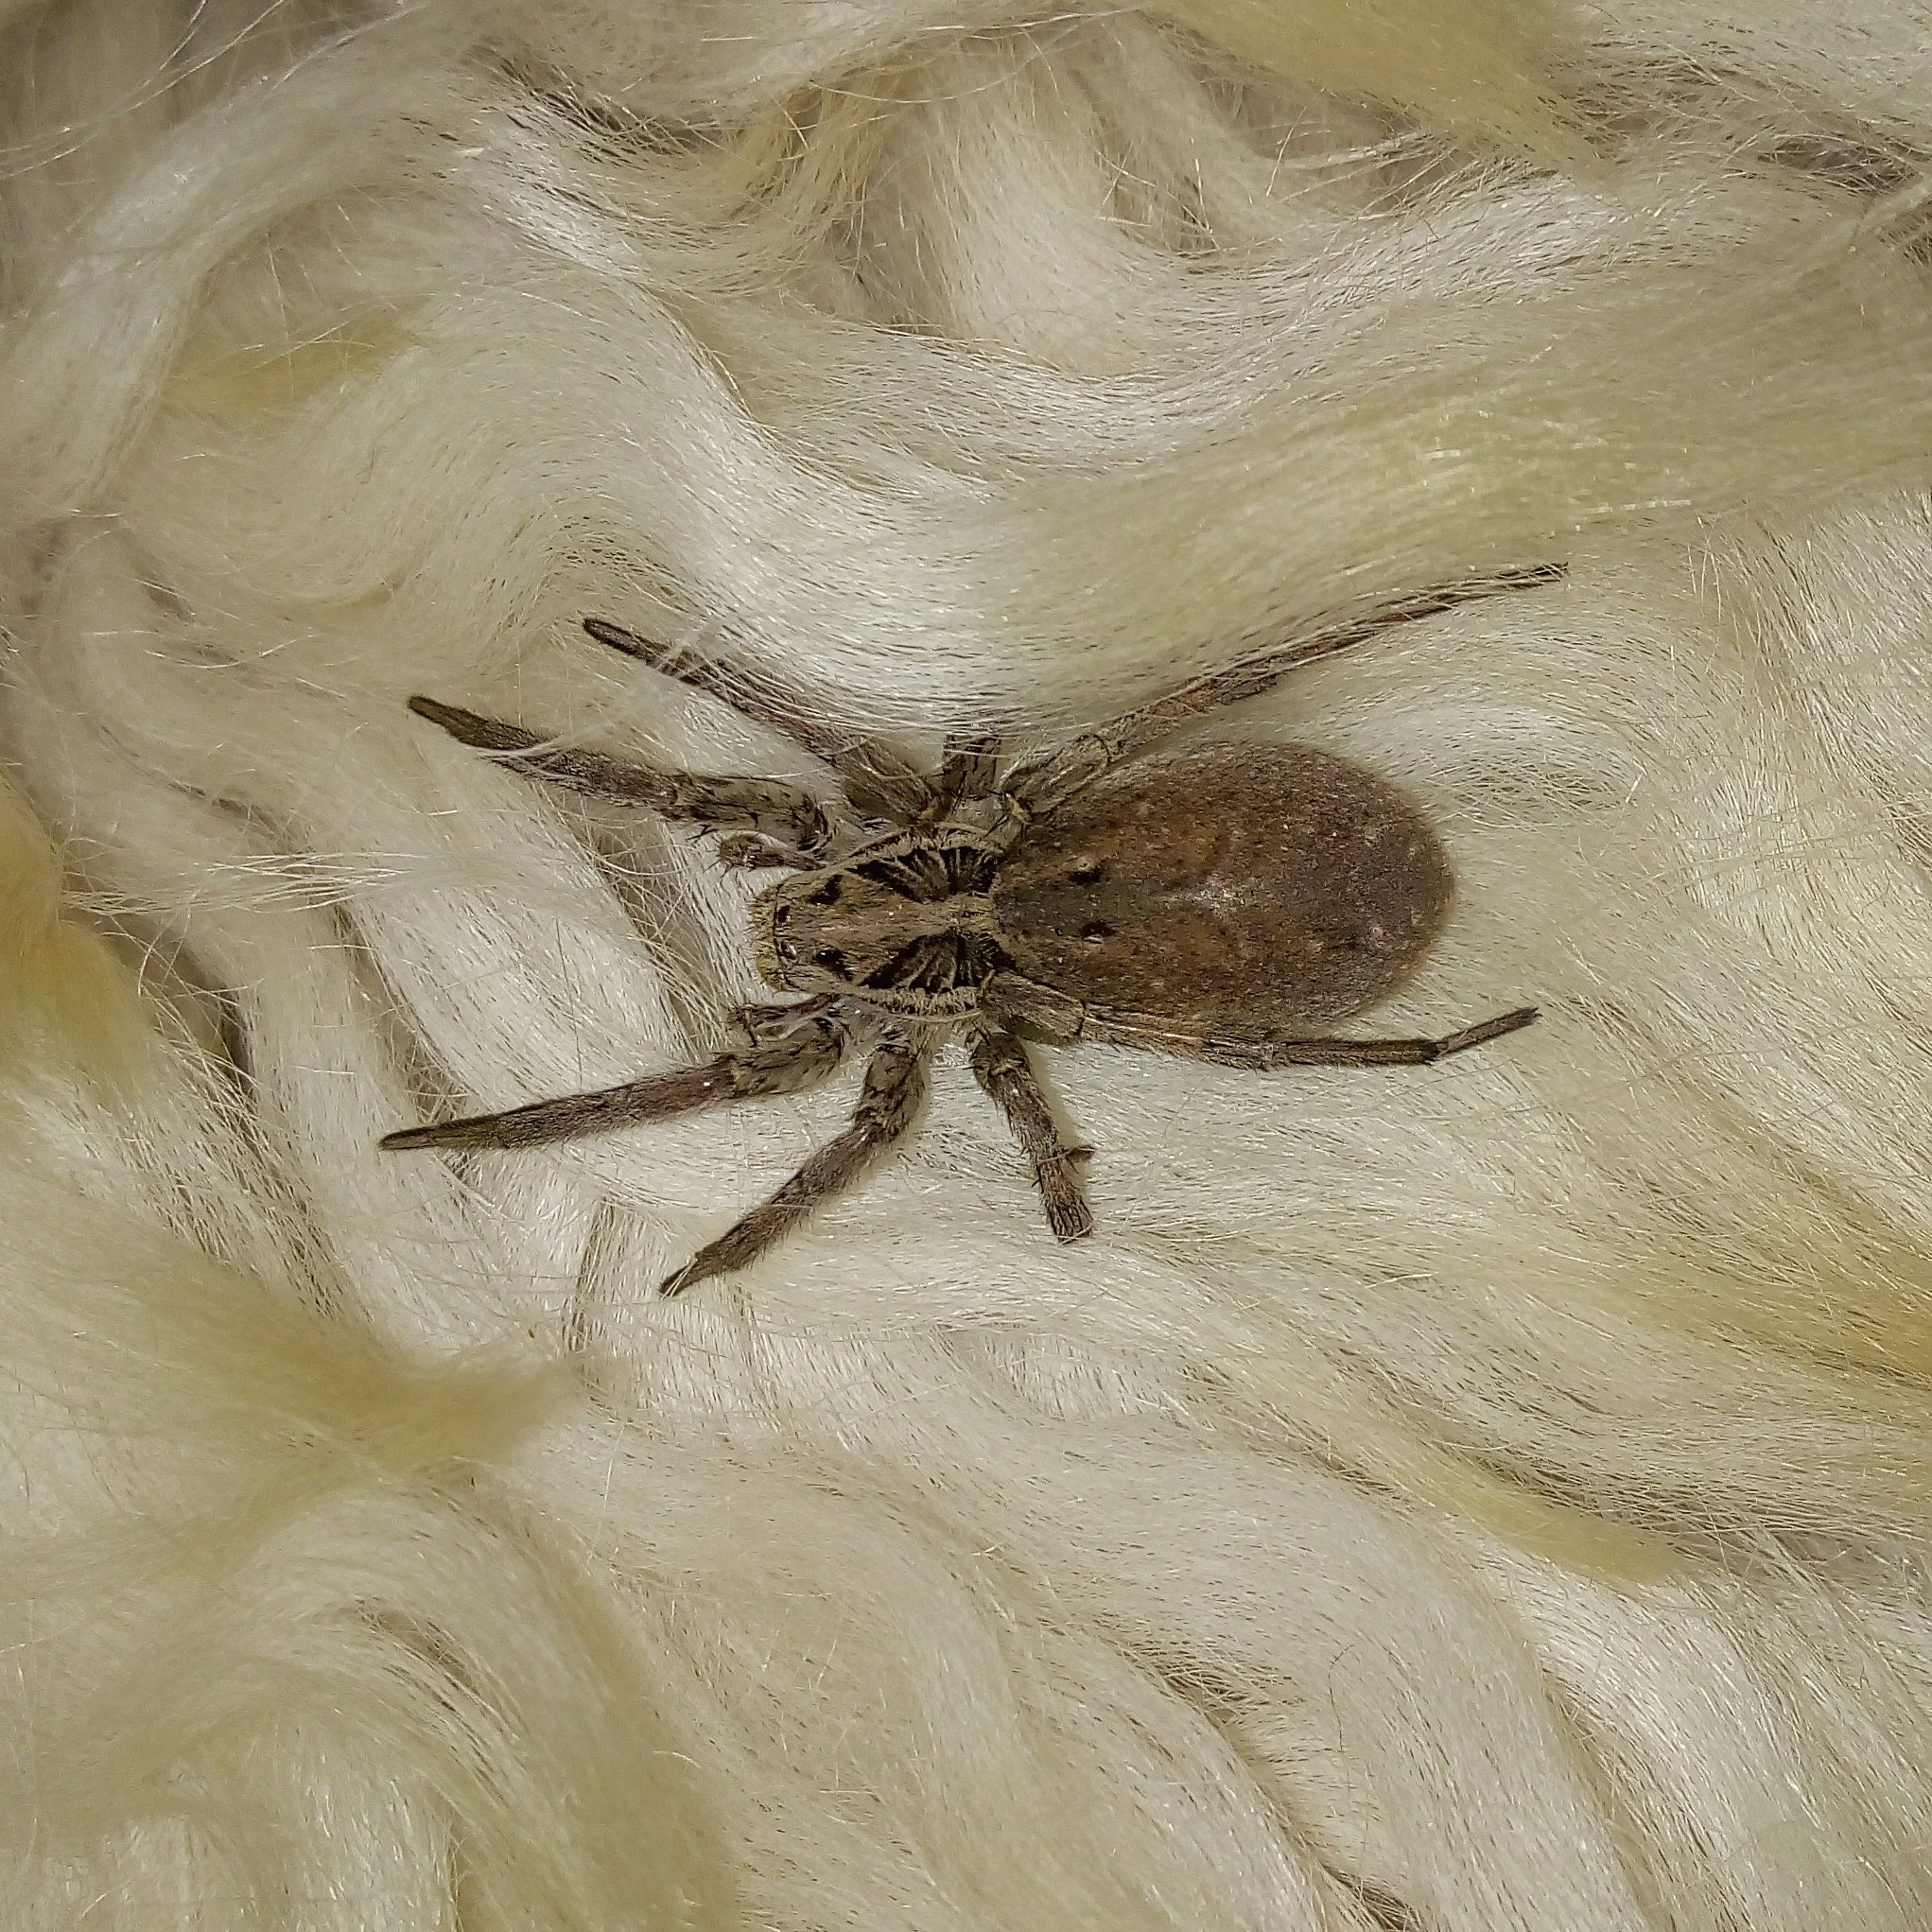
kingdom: Animalia
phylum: Arthropoda
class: Arachnida
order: Araneae
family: Lycosidae
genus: Hogna
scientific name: Hogna radiata
